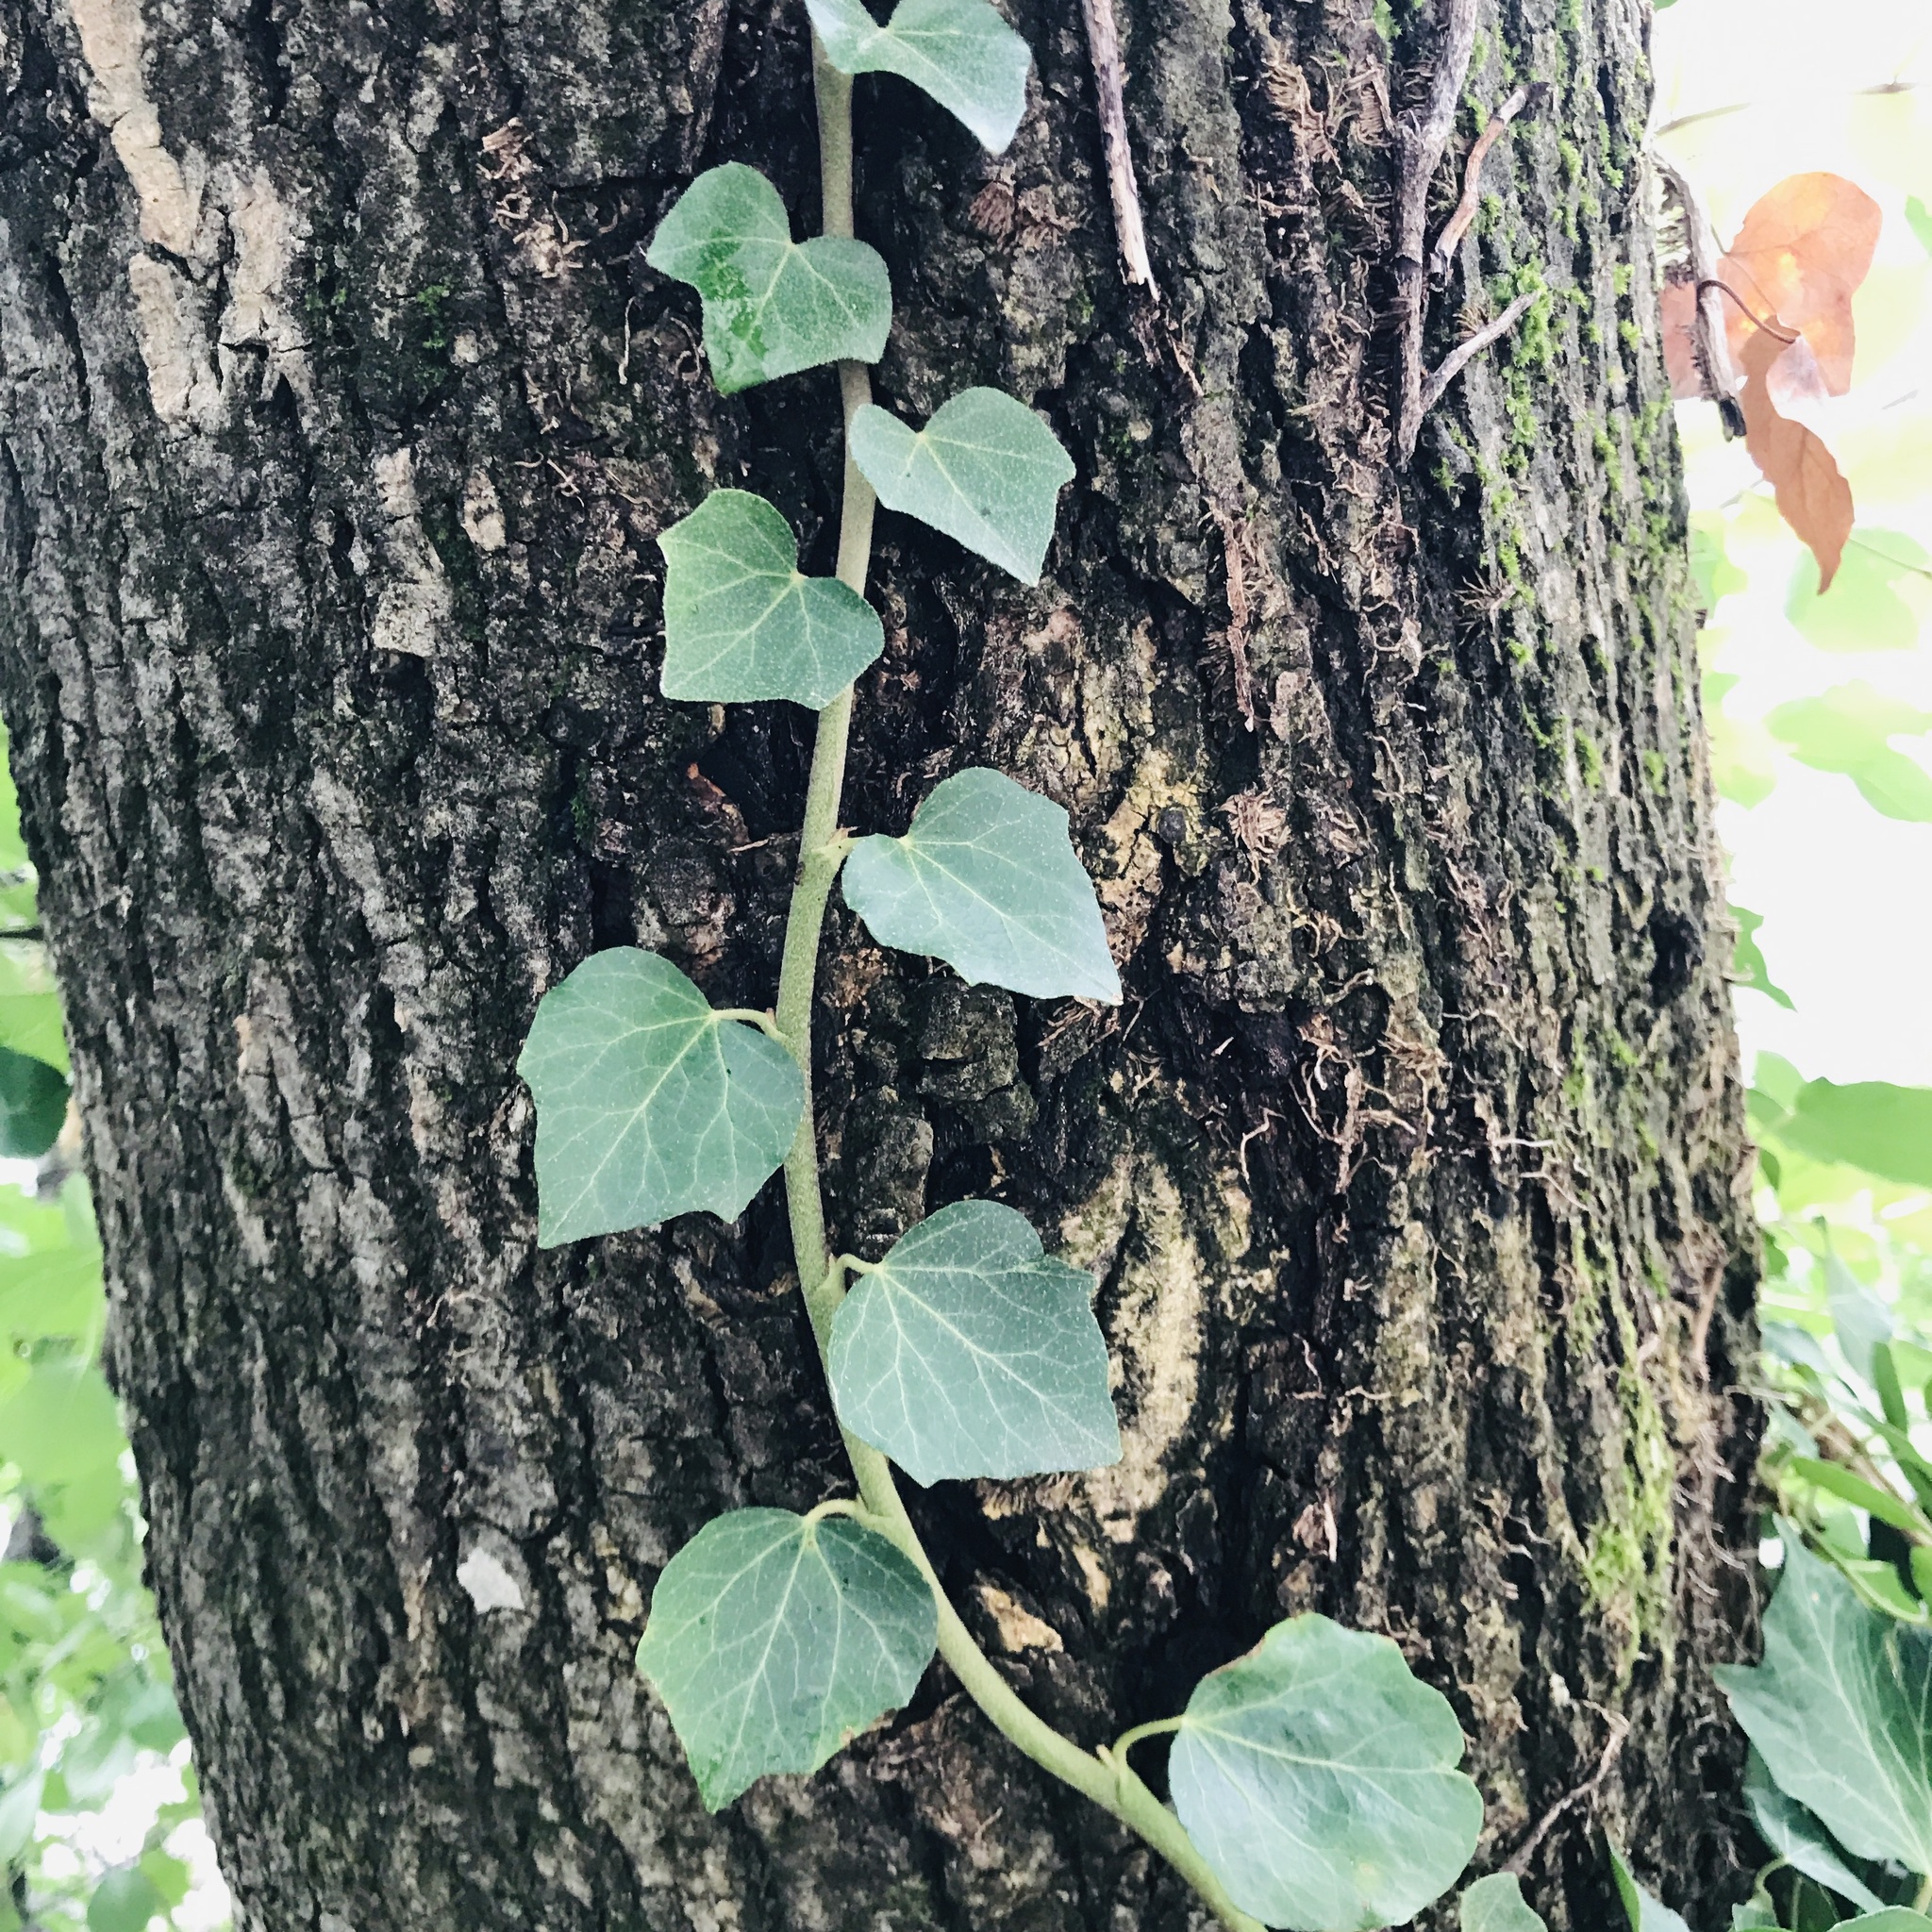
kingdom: Plantae
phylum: Tracheophyta
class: Magnoliopsida
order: Apiales
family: Araliaceae
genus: Hedera
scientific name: Hedera helix
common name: Ivy
